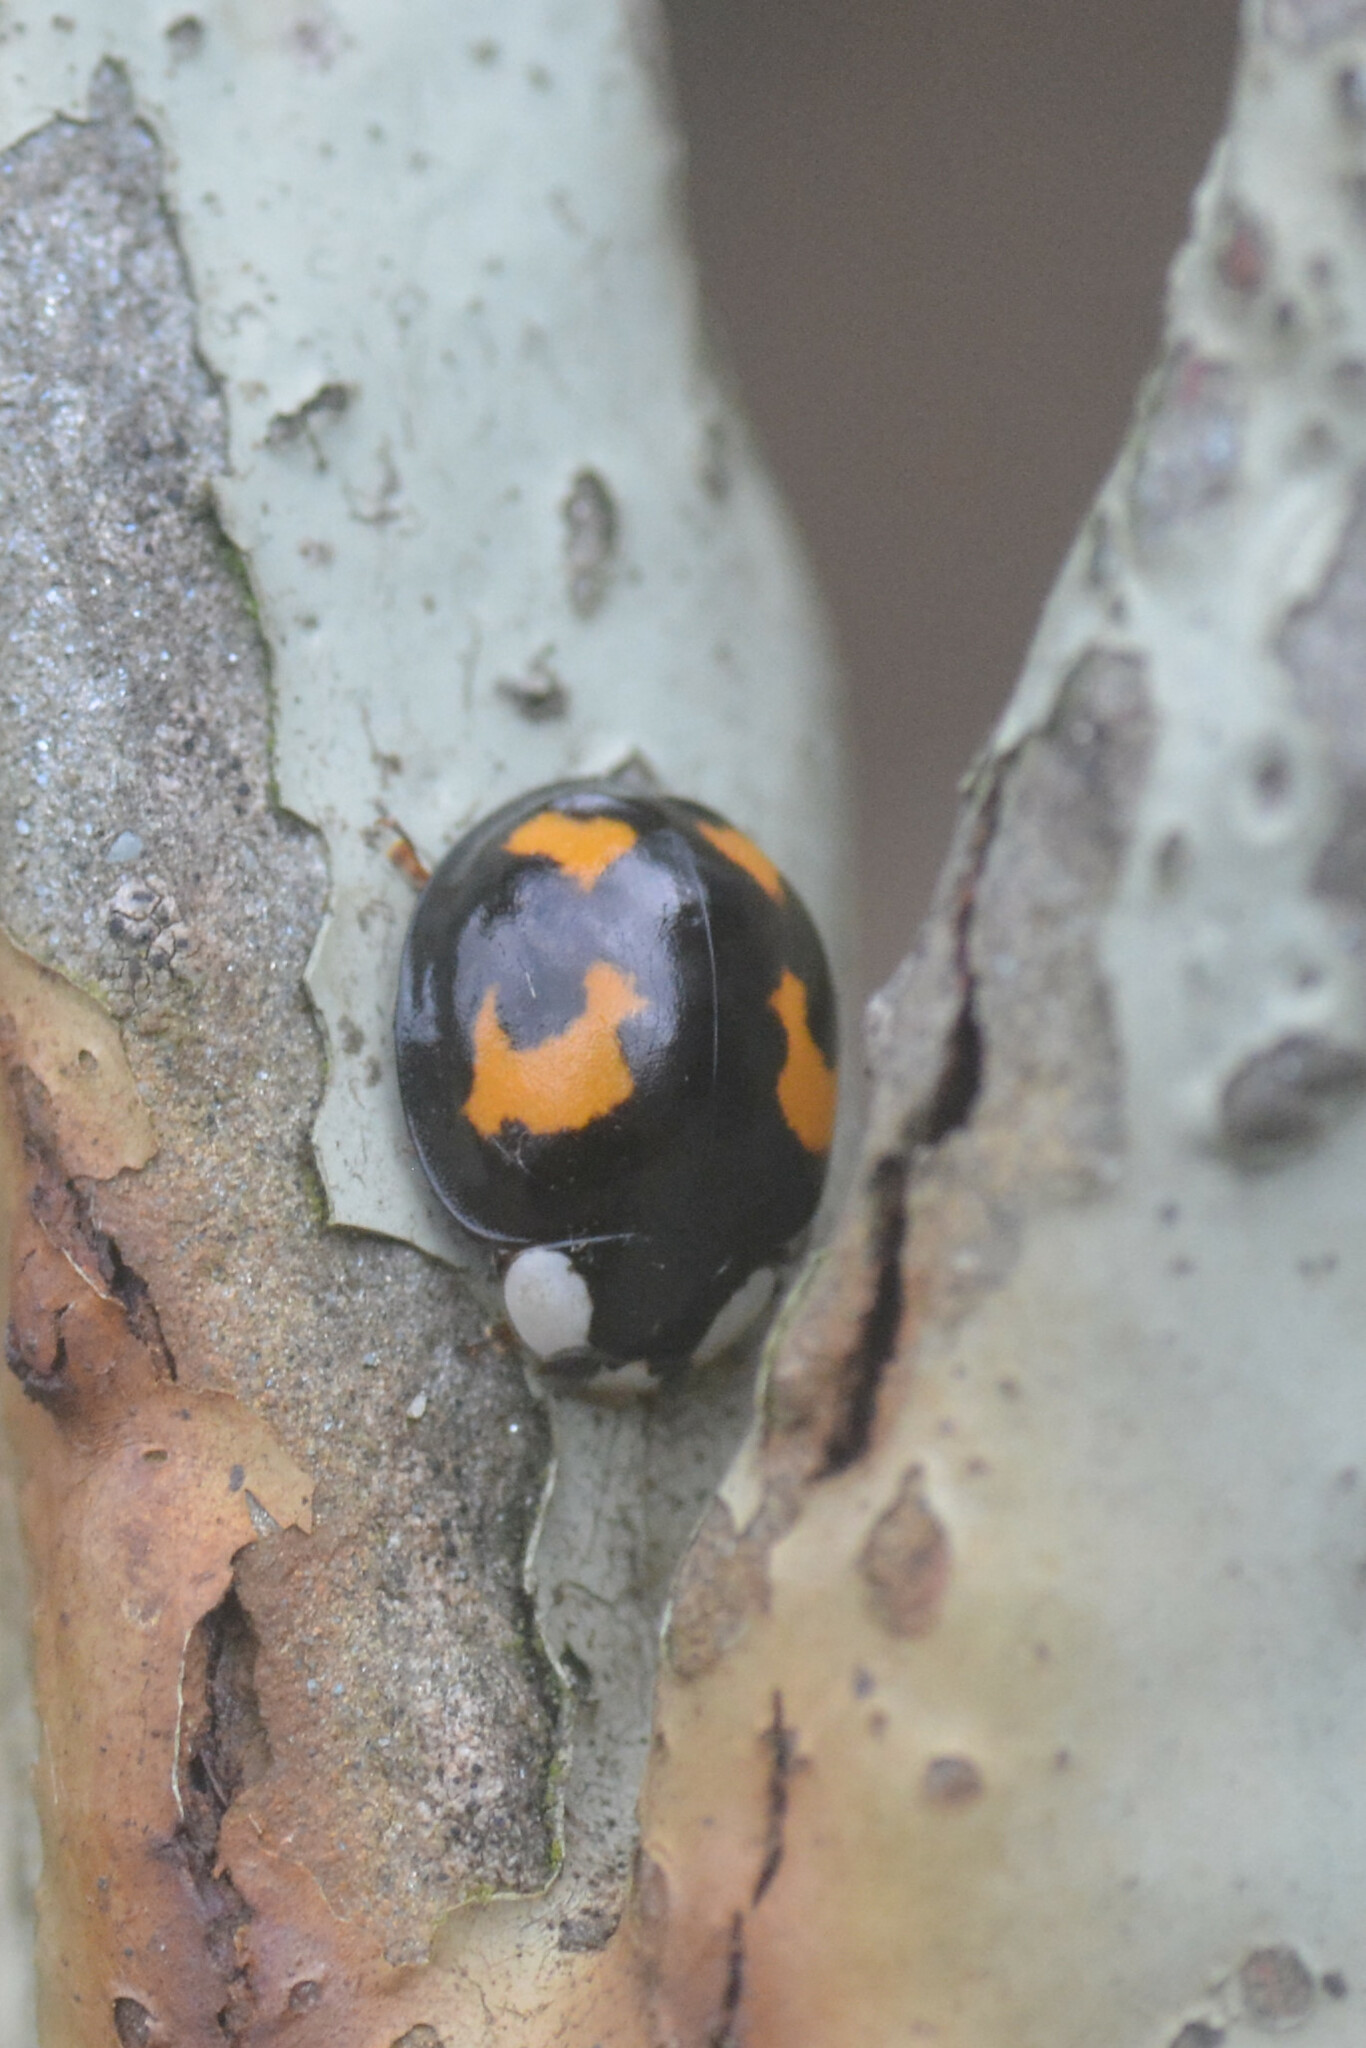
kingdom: Animalia
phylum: Arthropoda
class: Insecta
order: Coleoptera
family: Coccinellidae
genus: Harmonia
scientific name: Harmonia axyridis
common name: Harlequin ladybird
